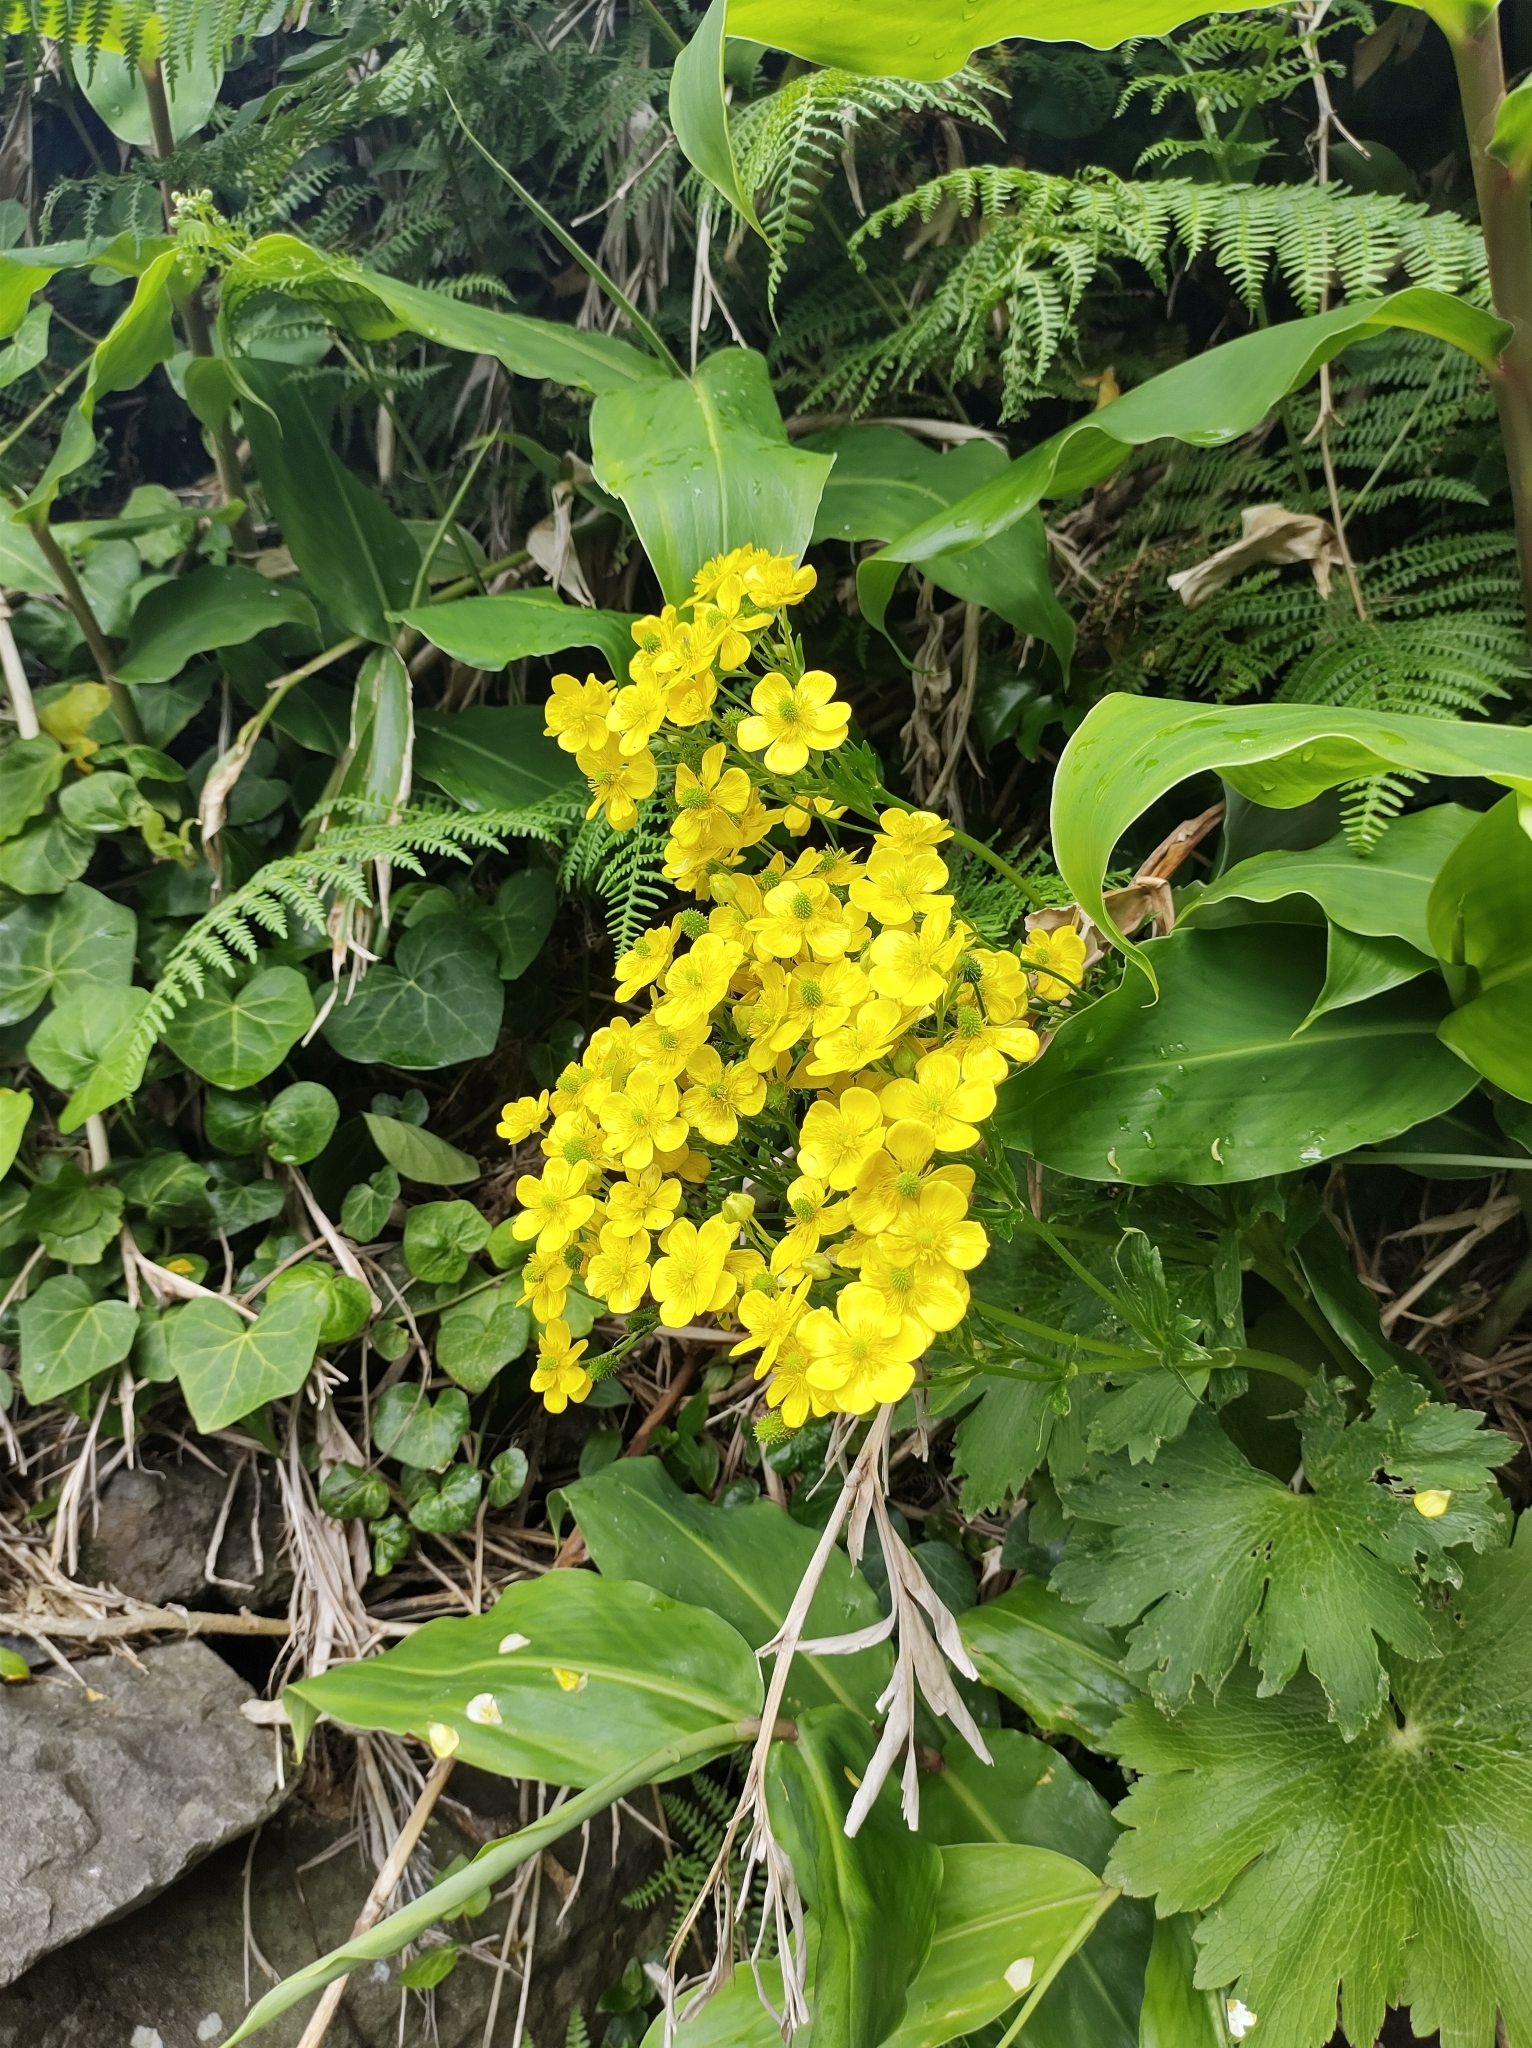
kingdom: Plantae
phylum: Tracheophyta
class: Magnoliopsida
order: Ranunculales
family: Ranunculaceae
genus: Ranunculus
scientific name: Ranunculus cortusifolius
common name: Azores buttercup
